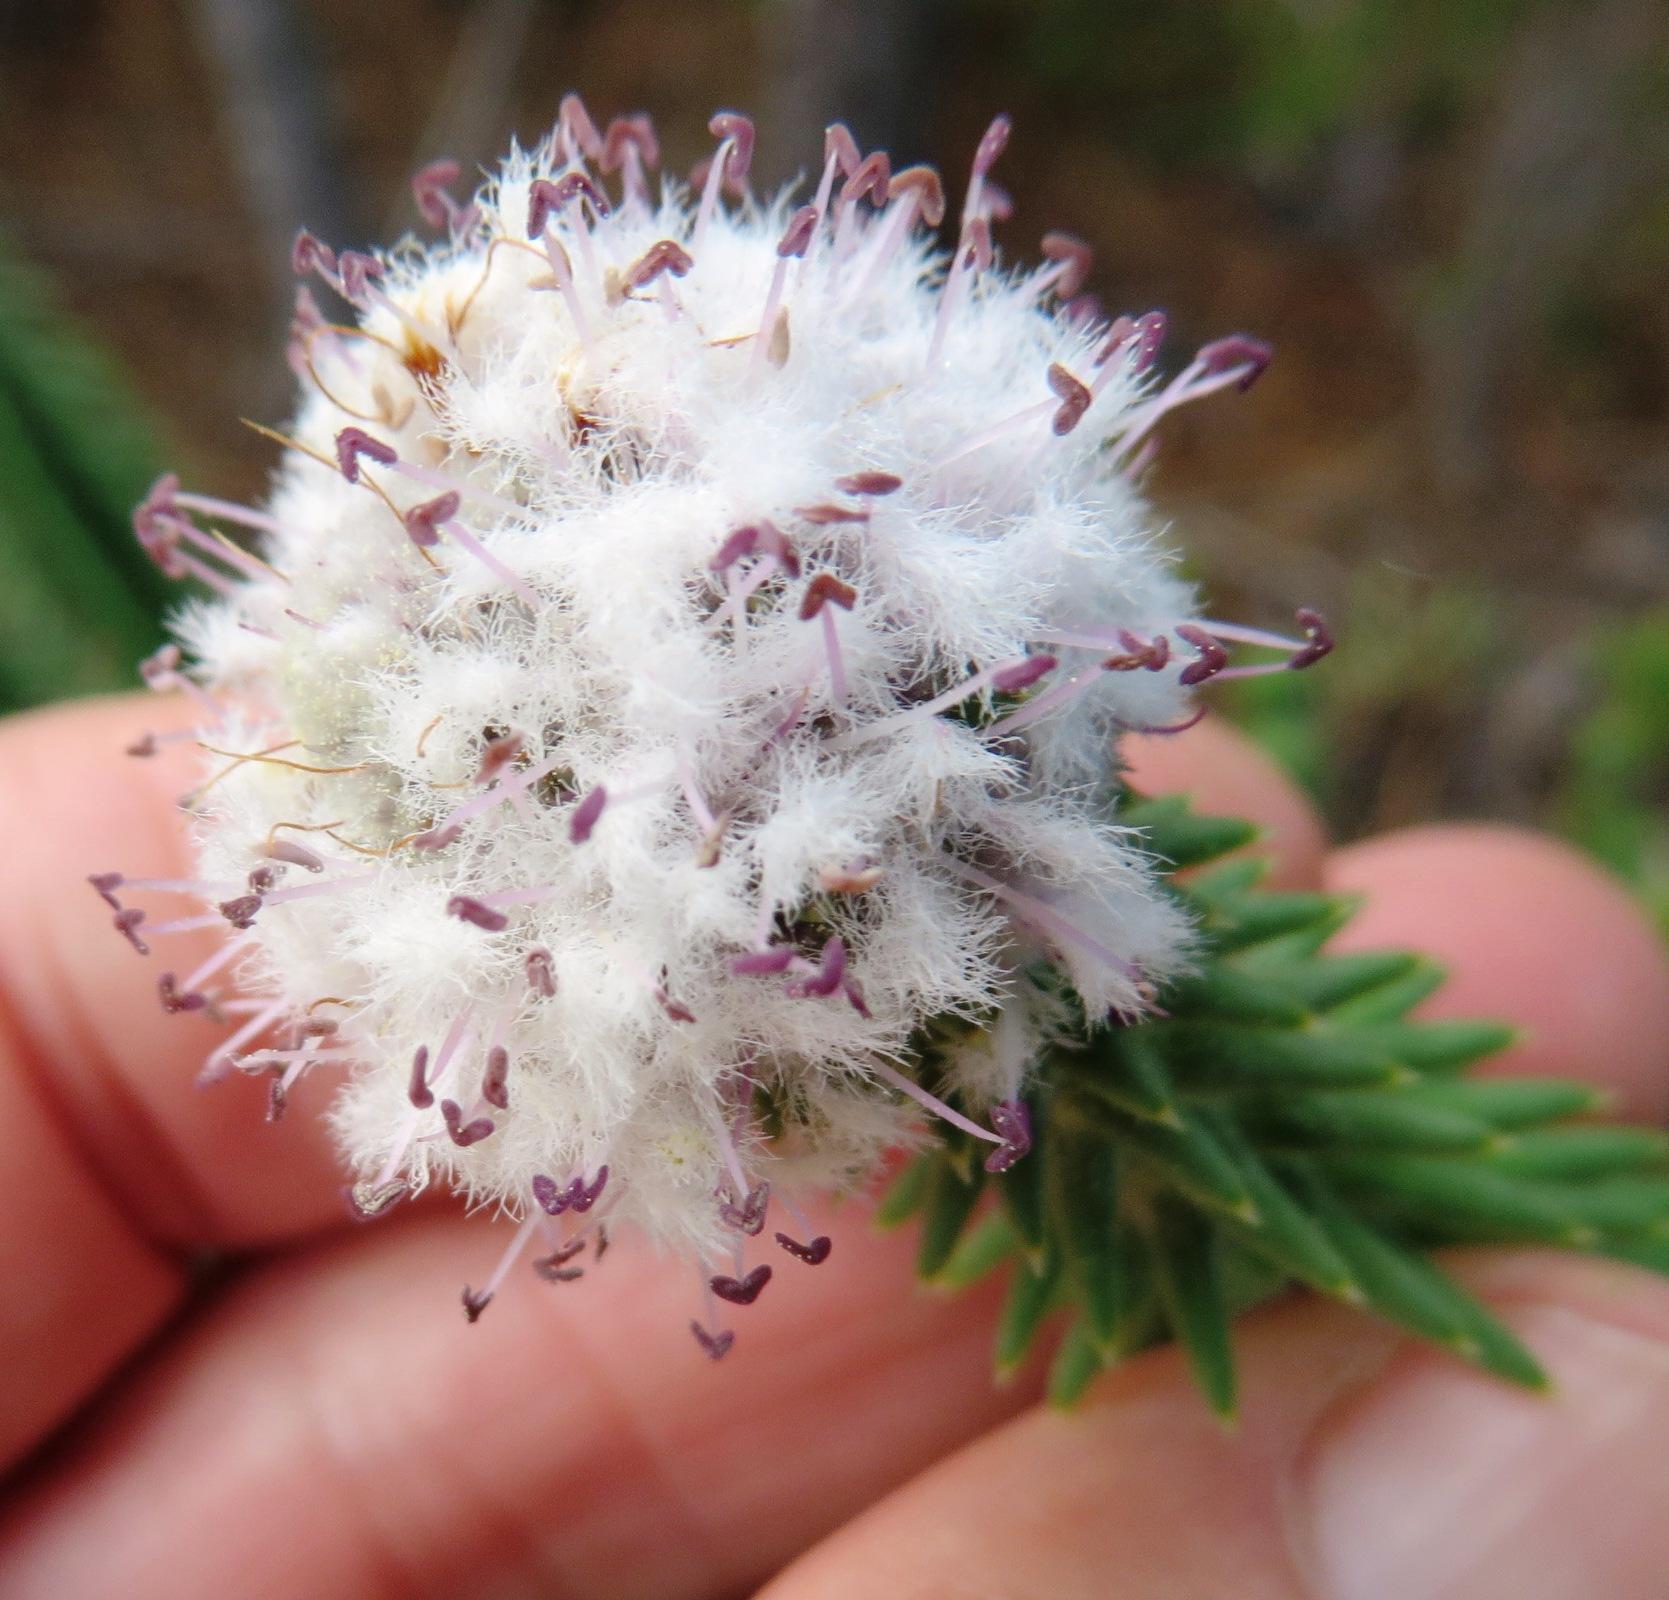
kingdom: Plantae
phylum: Tracheophyta
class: Magnoliopsida
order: Lamiales
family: Stilbaceae
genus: Kogelbergia
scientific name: Kogelbergia verticillata
